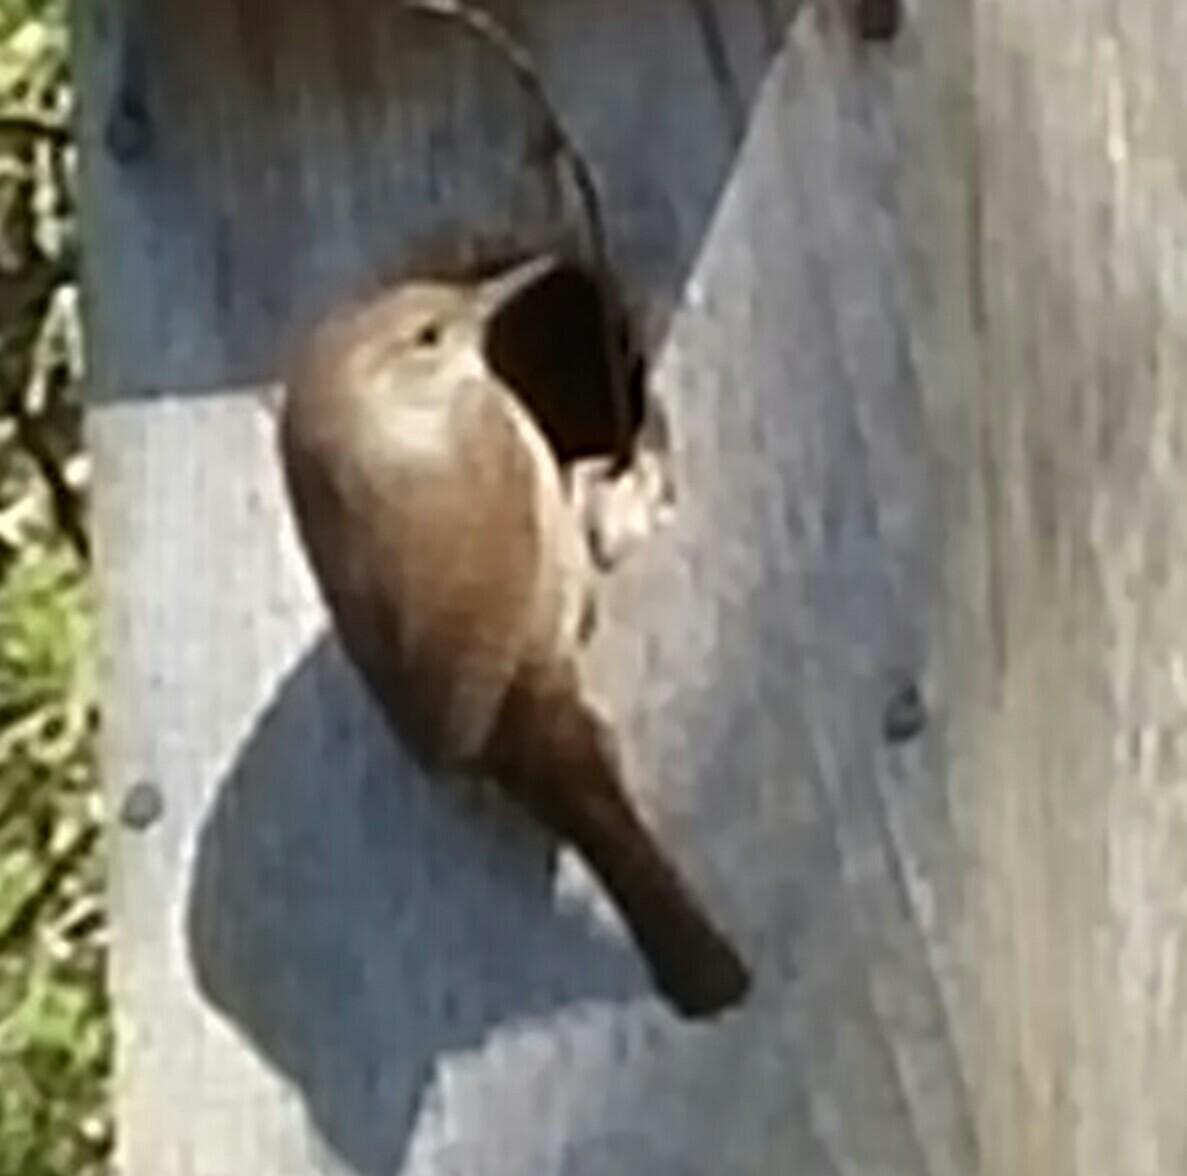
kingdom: Animalia
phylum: Chordata
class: Aves
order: Passeriformes
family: Troglodytidae
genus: Troglodytes
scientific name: Troglodytes aedon
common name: House wren
